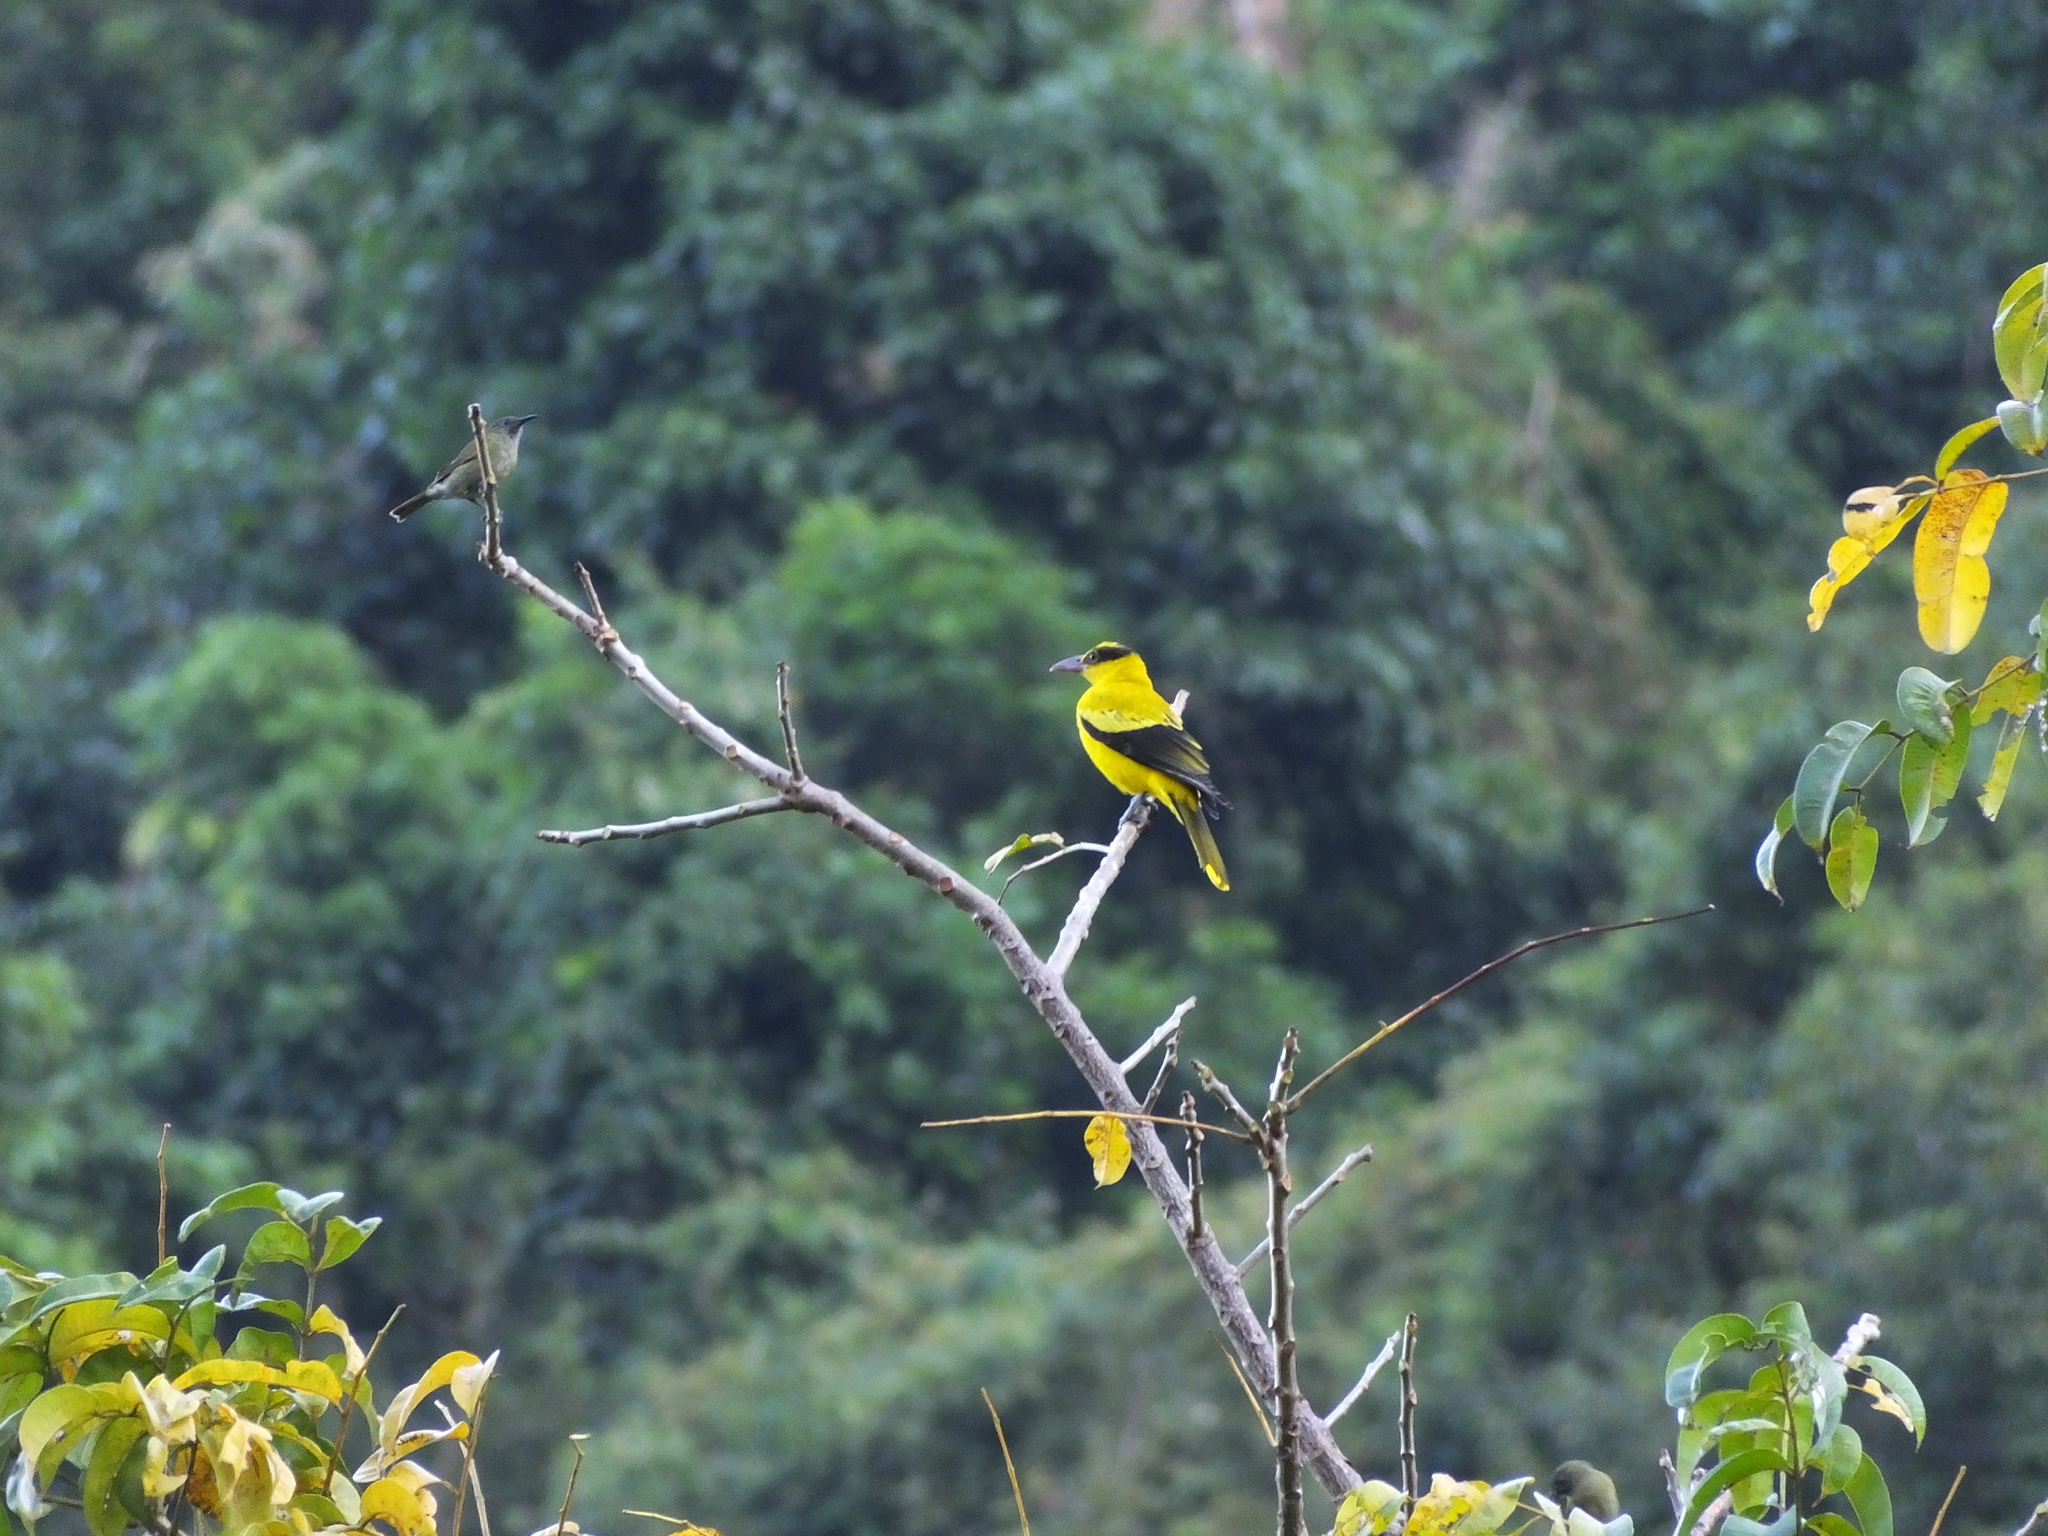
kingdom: Animalia
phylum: Chordata
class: Aves
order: Passeriformes
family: Meliphagidae
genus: Sugomel
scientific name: Sugomel lombokius
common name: Scaly-crowned honeyeater
